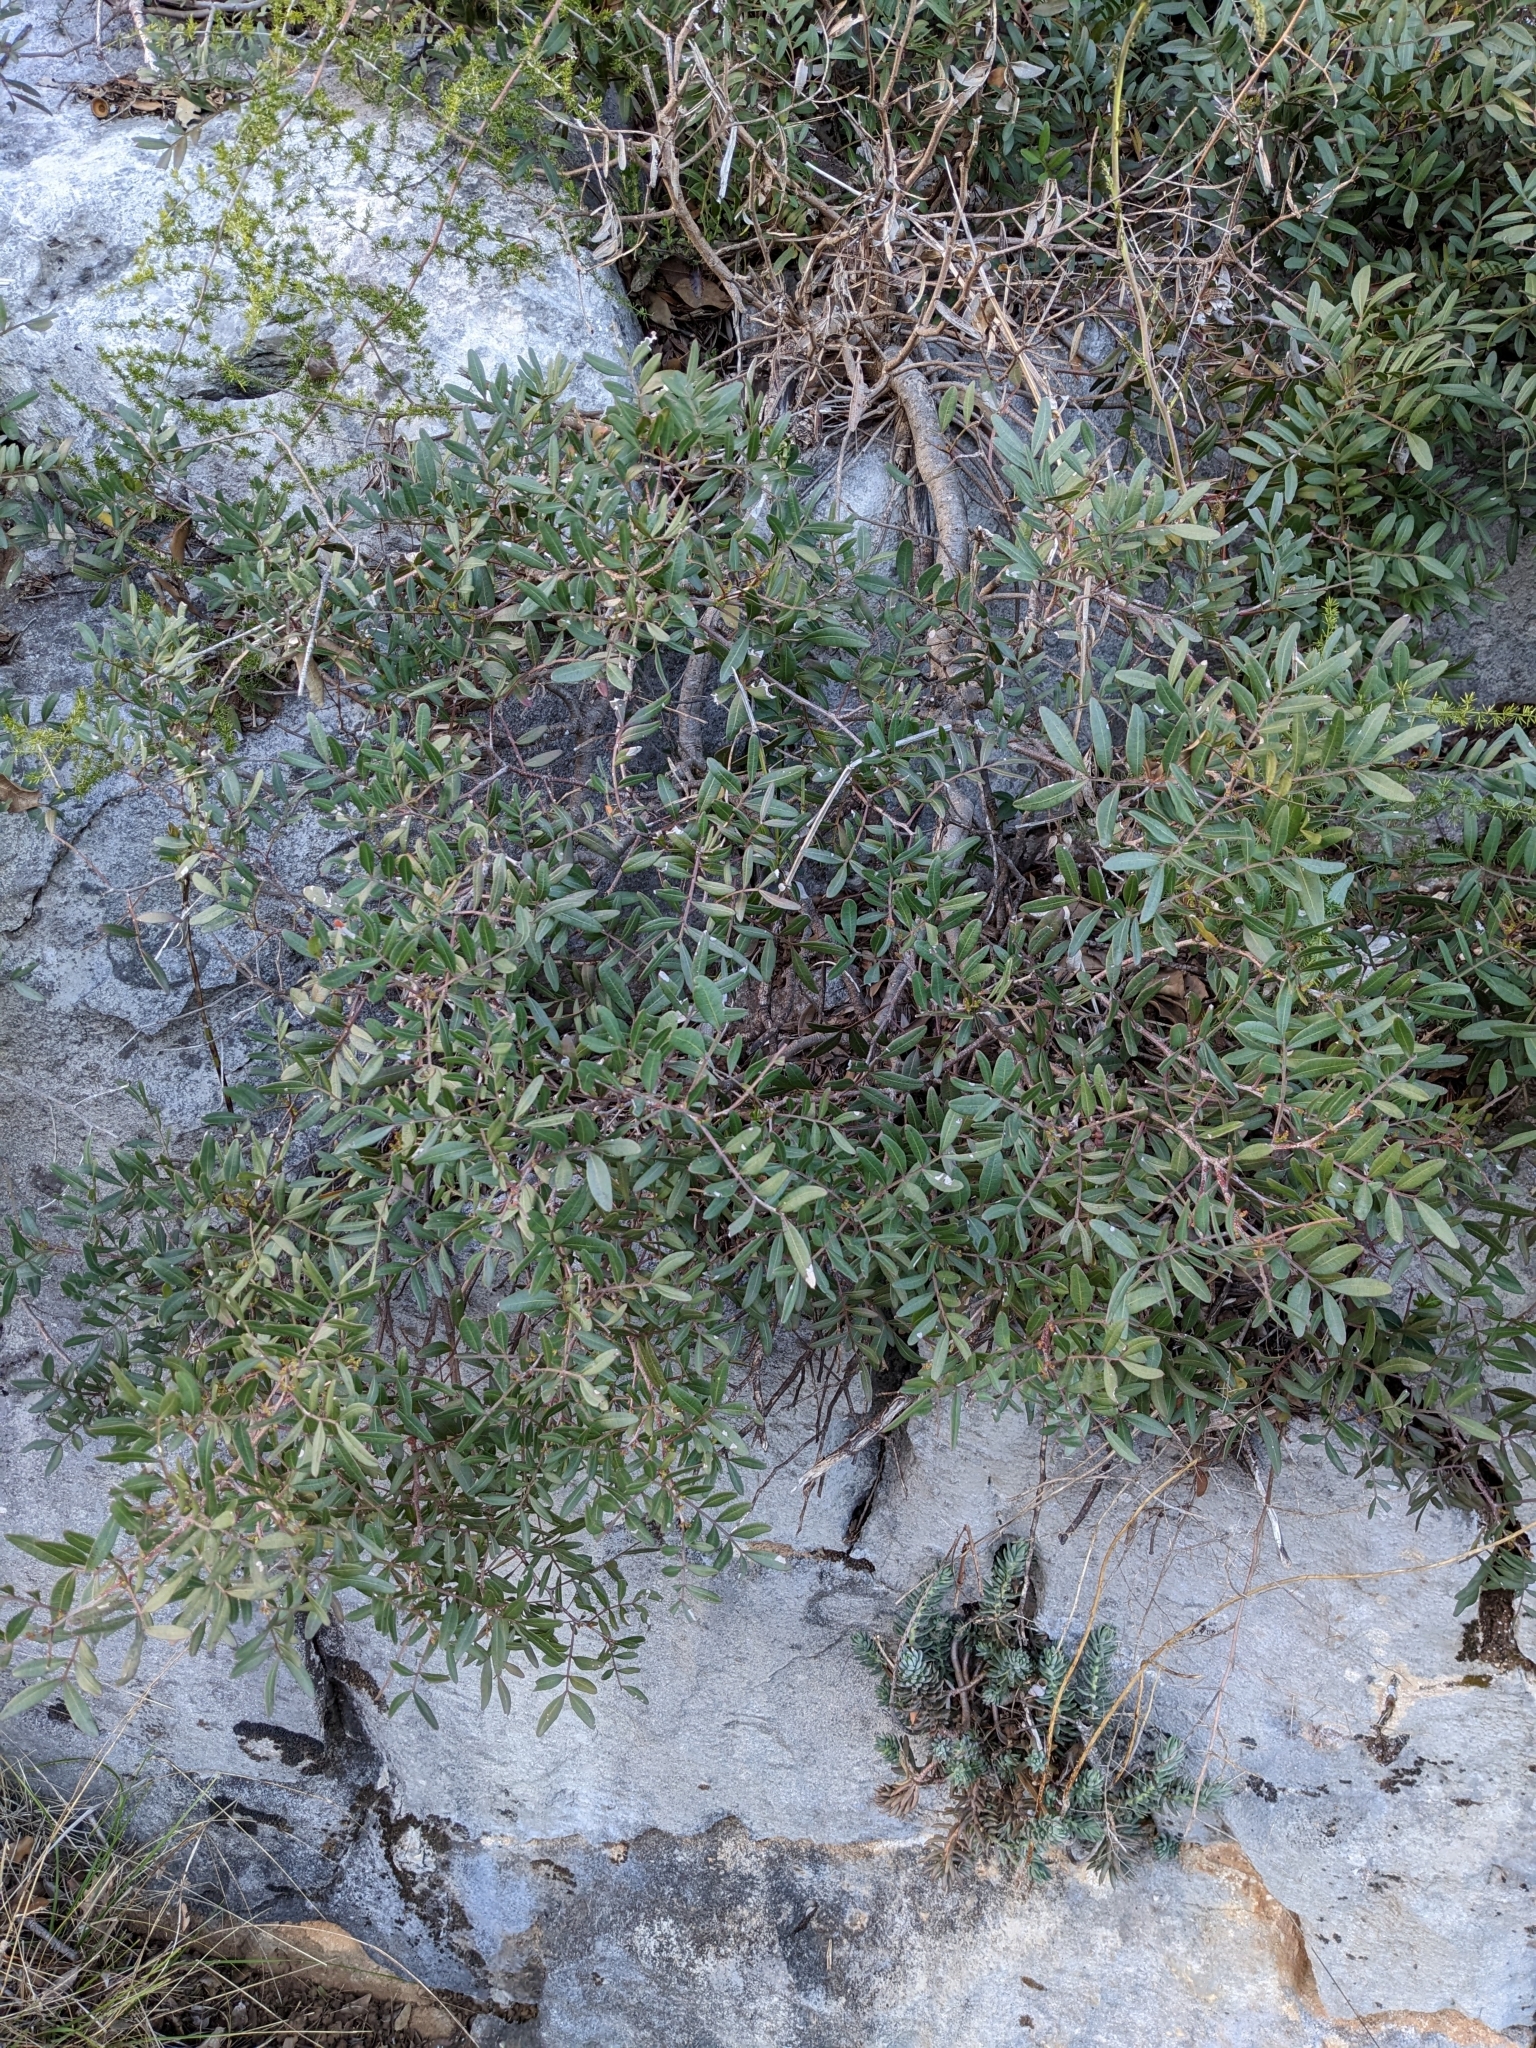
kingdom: Plantae
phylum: Tracheophyta
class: Magnoliopsida
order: Sapindales
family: Anacardiaceae
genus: Pistacia
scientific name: Pistacia lentiscus
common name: Lentisk
